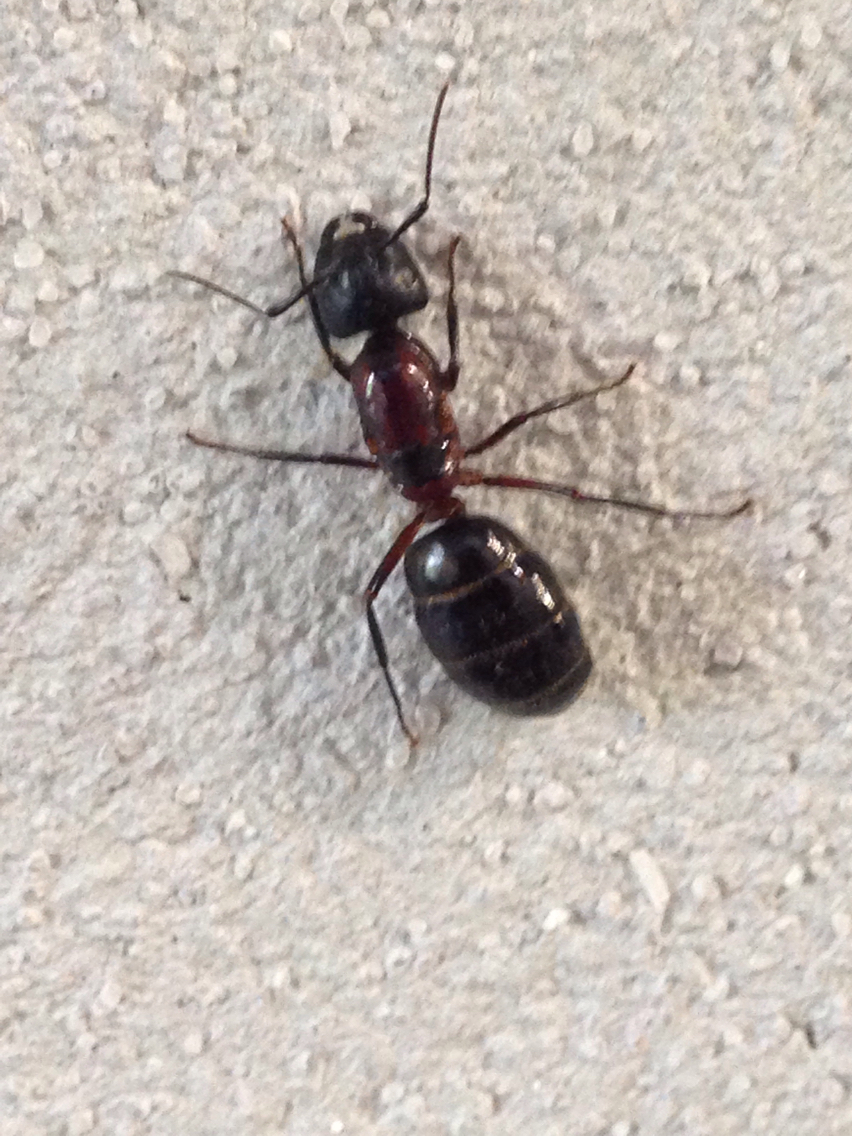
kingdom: Animalia
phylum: Arthropoda
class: Insecta
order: Hymenoptera
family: Formicidae
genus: Camponotus
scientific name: Camponotus novaeboracensis
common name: New york carpenter ant
